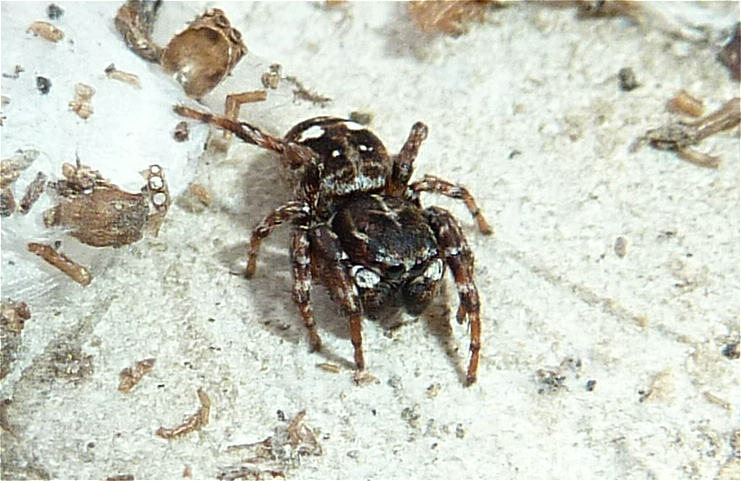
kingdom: Animalia
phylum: Arthropoda
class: Arachnida
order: Araneae
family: Salticidae
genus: Attulus
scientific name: Attulus rupicola
